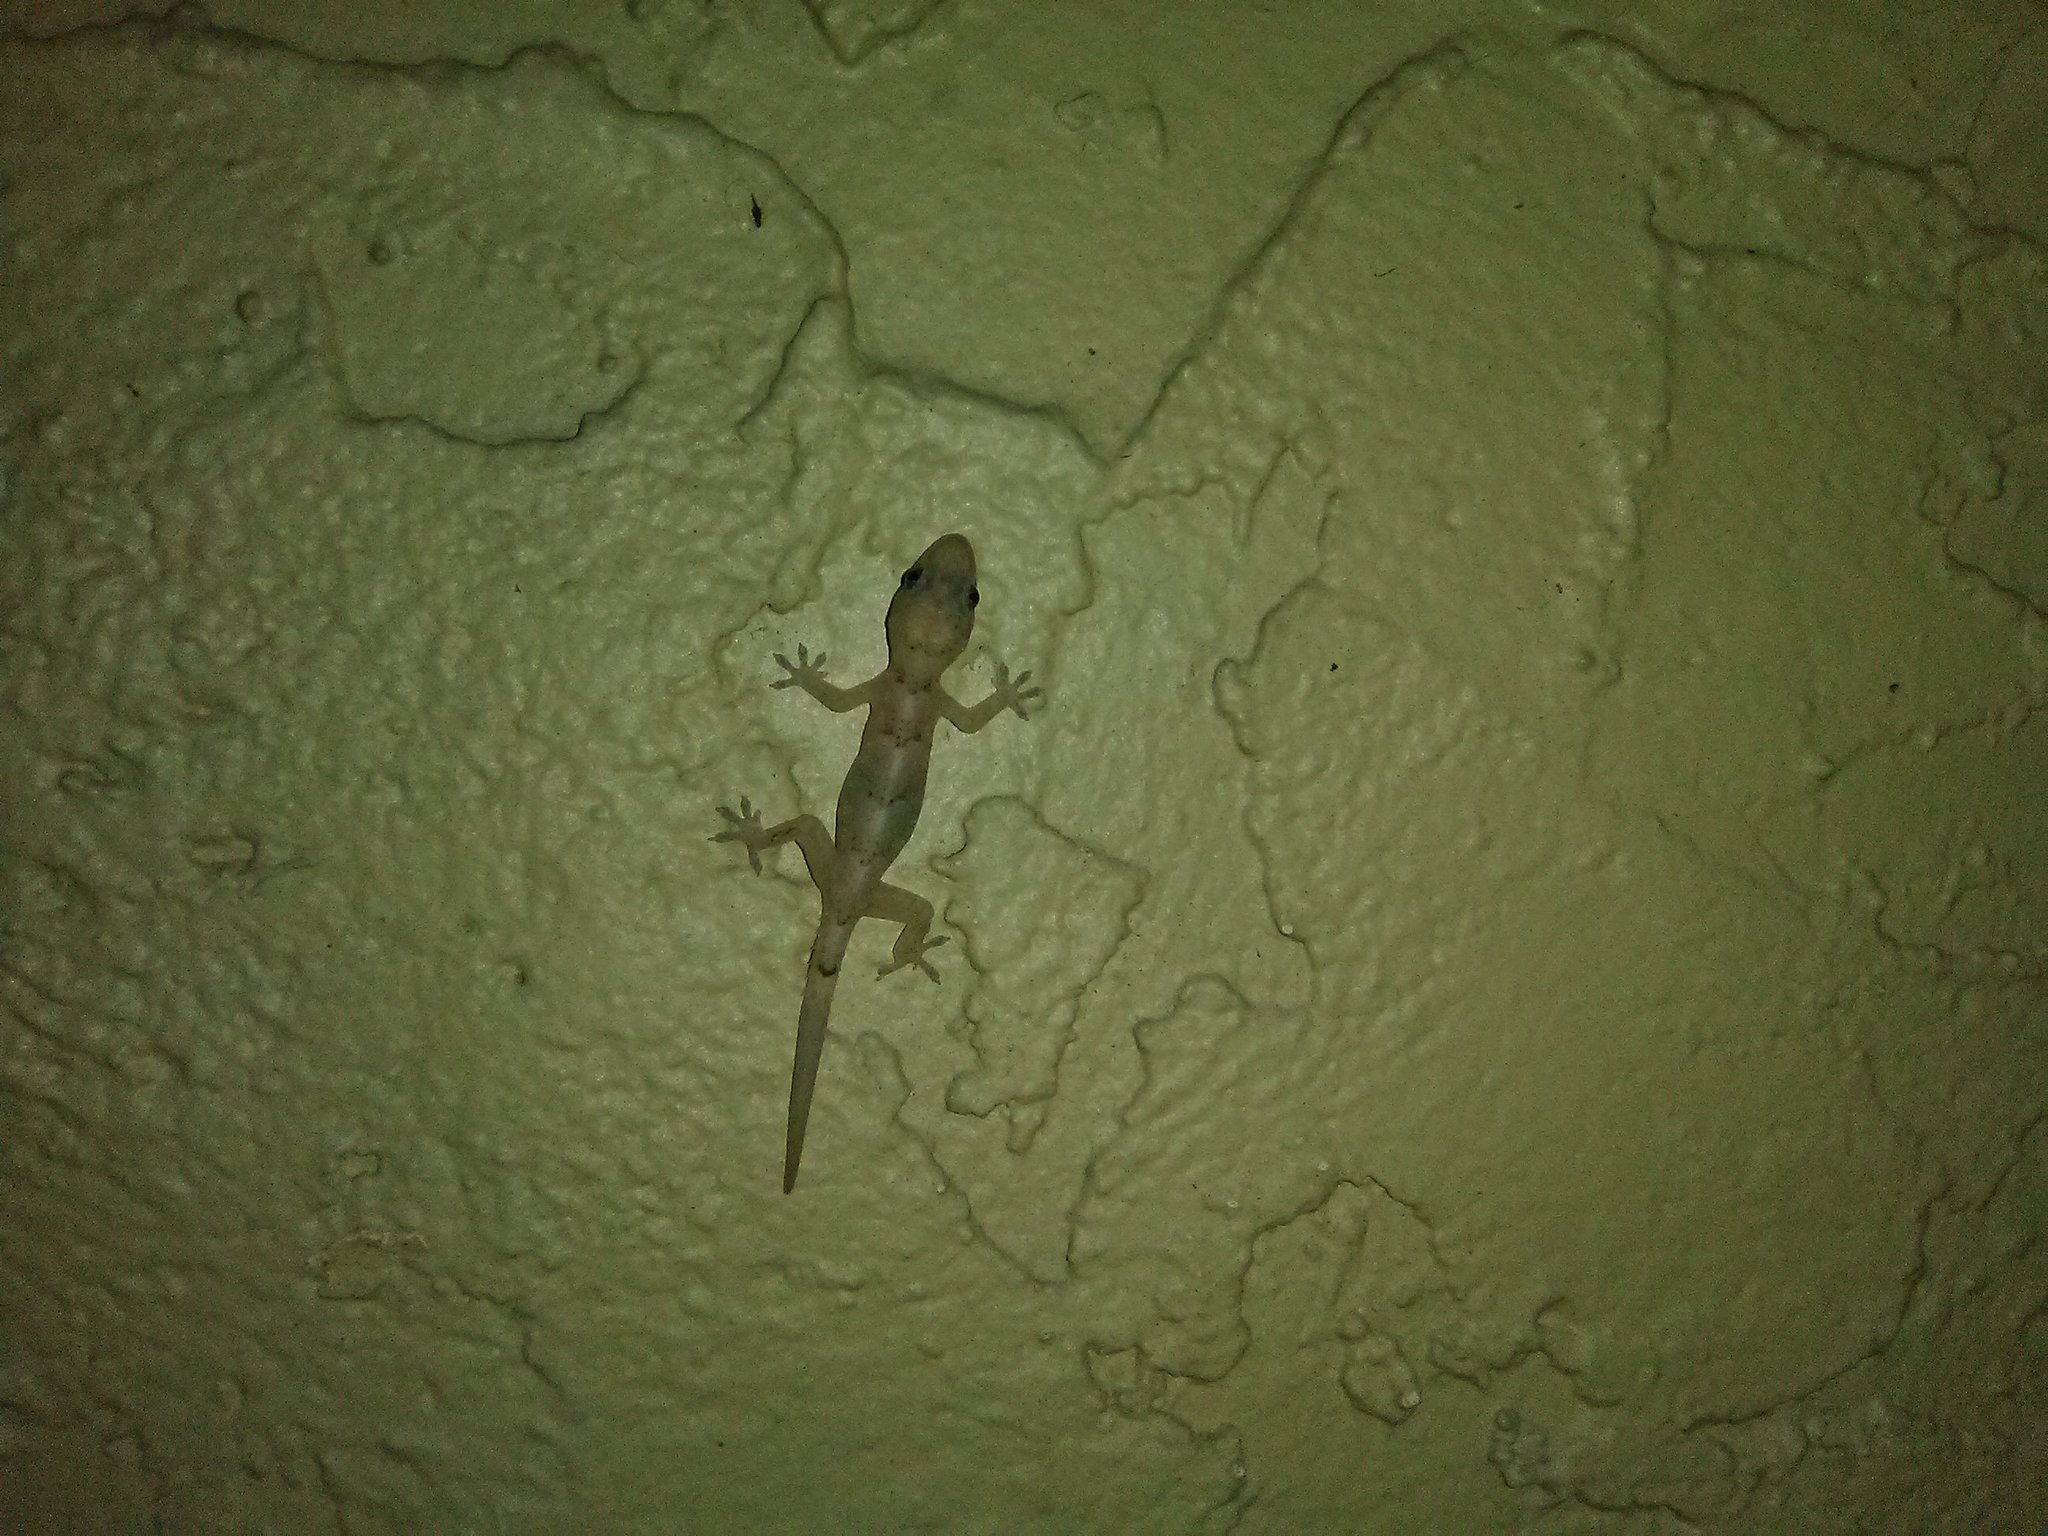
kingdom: Animalia
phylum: Chordata
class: Squamata
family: Gekkonidae
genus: Hemidactylus
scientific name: Hemidactylus mabouia
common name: House gecko
